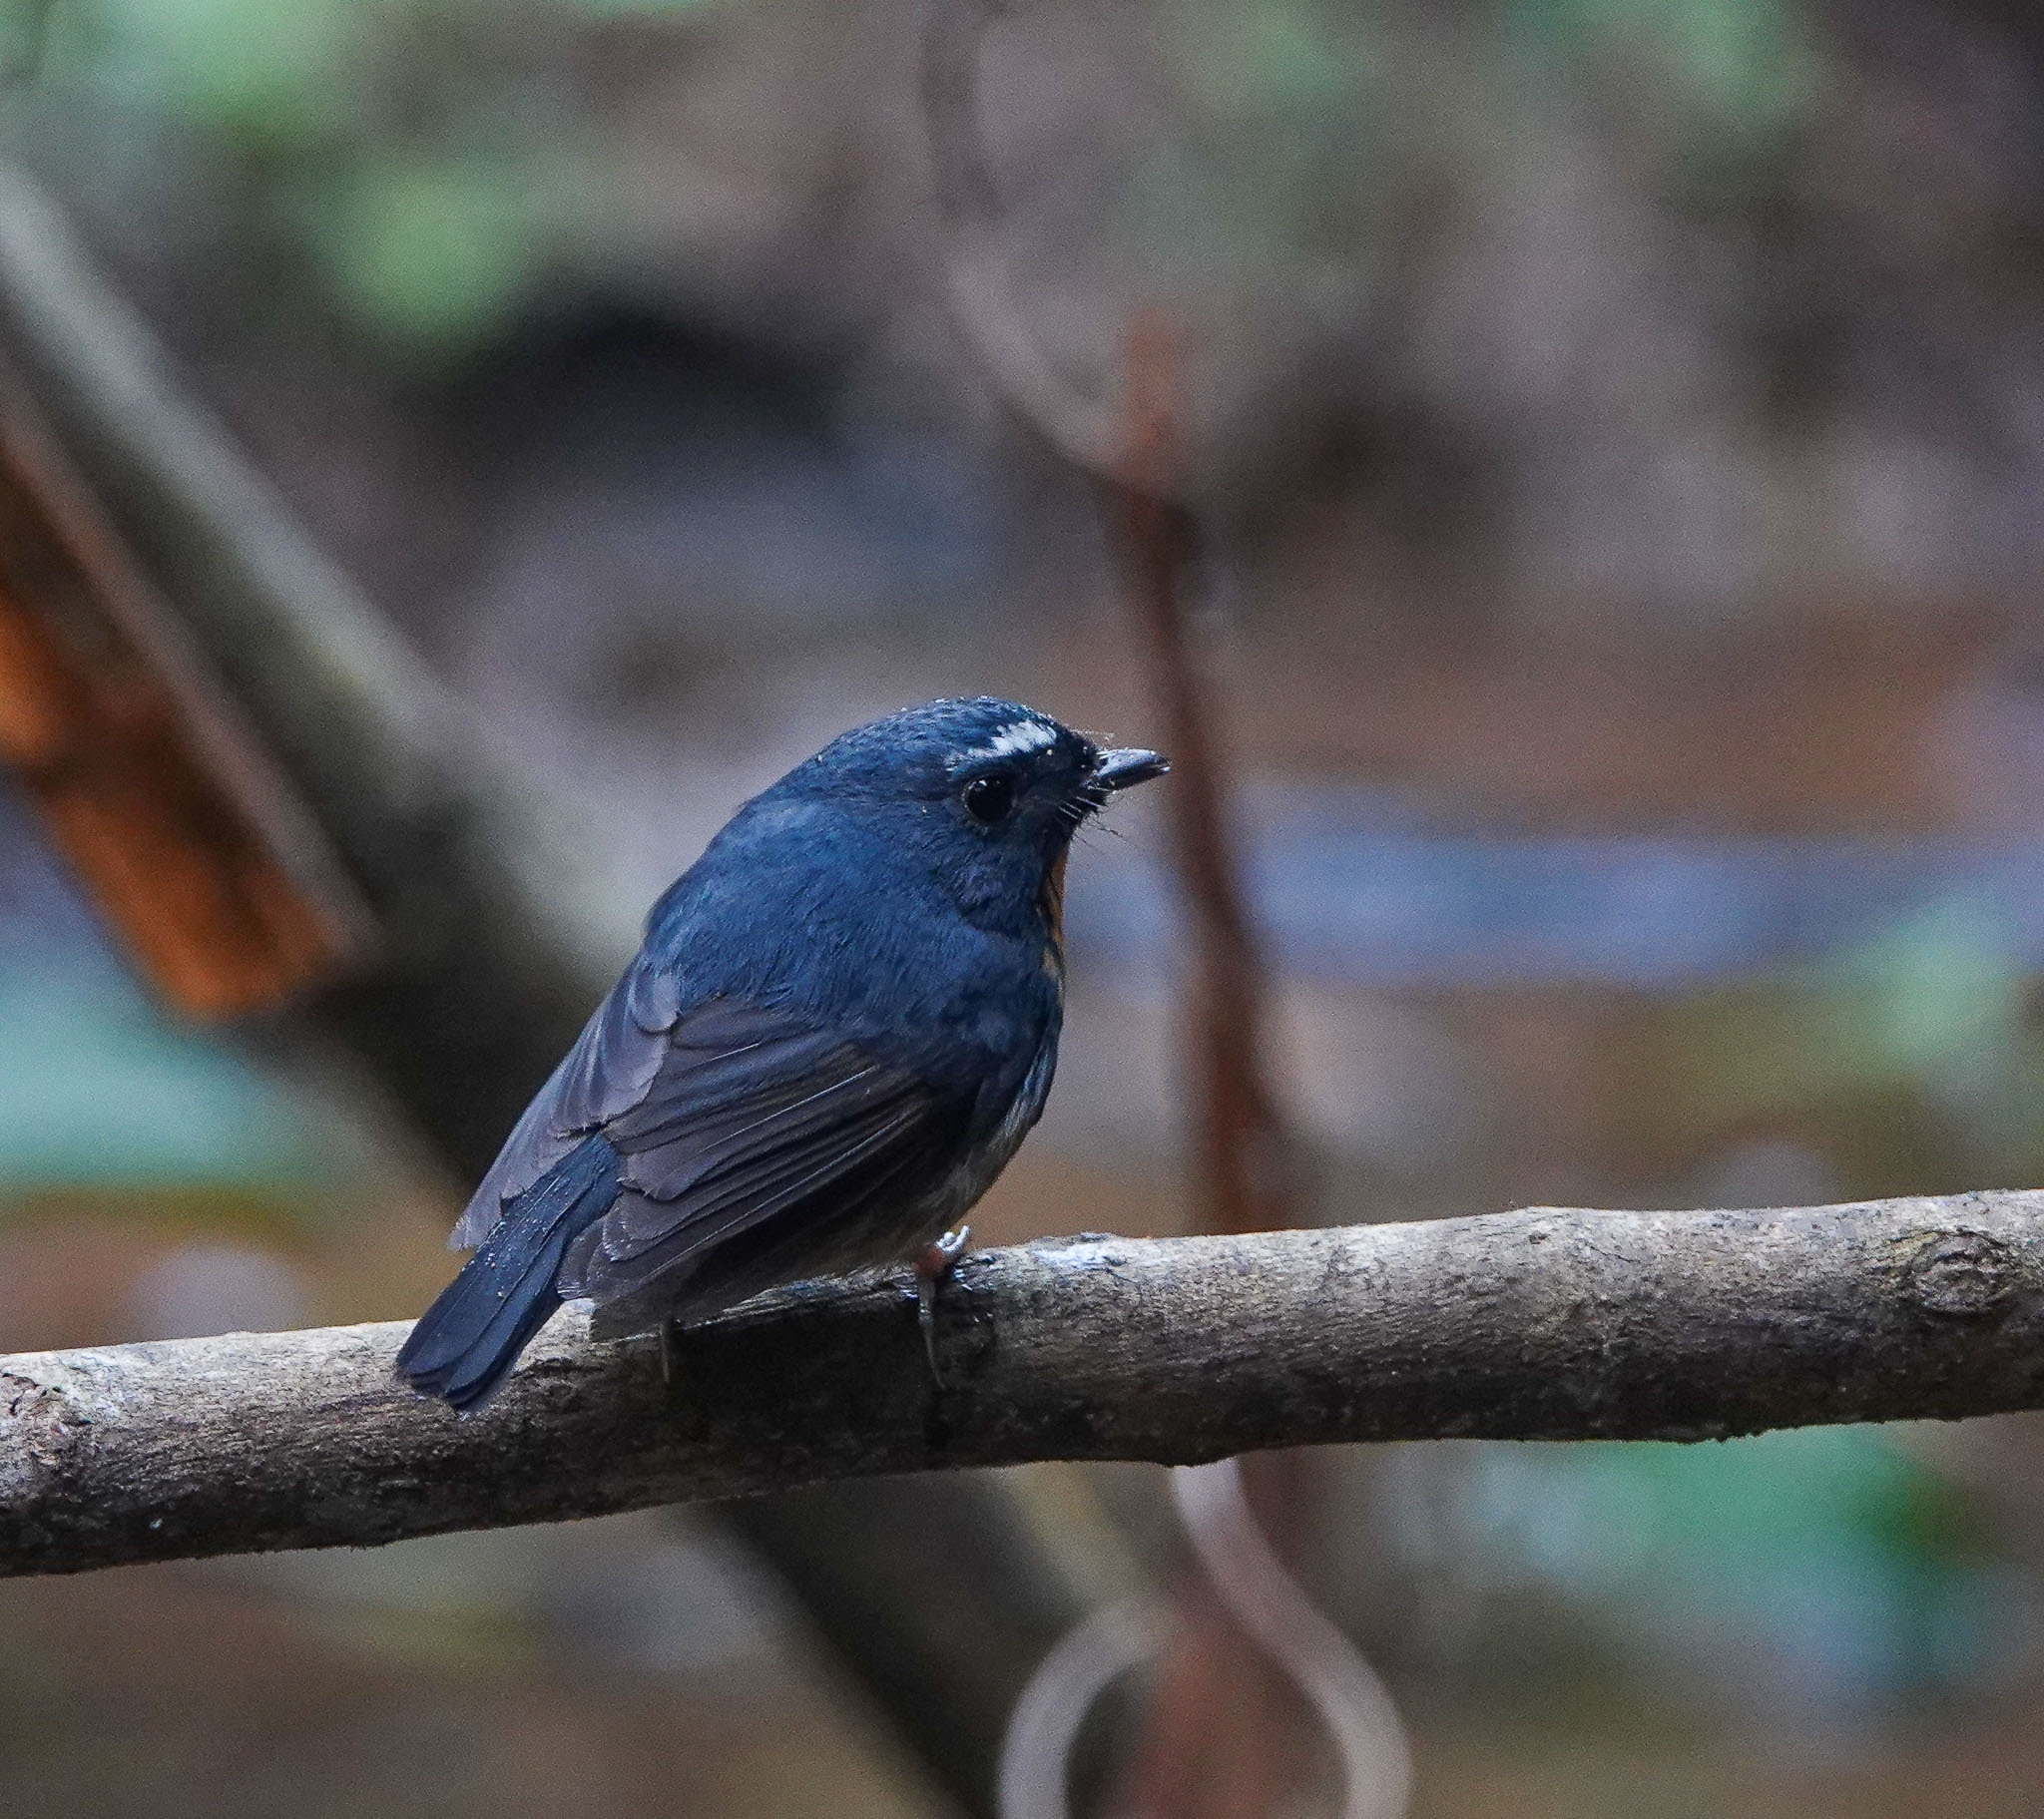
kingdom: Animalia
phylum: Chordata
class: Aves
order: Passeriformes
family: Muscicapidae
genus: Ficedula
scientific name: Ficedula hyperythra
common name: Snowy-browed flycatcher
